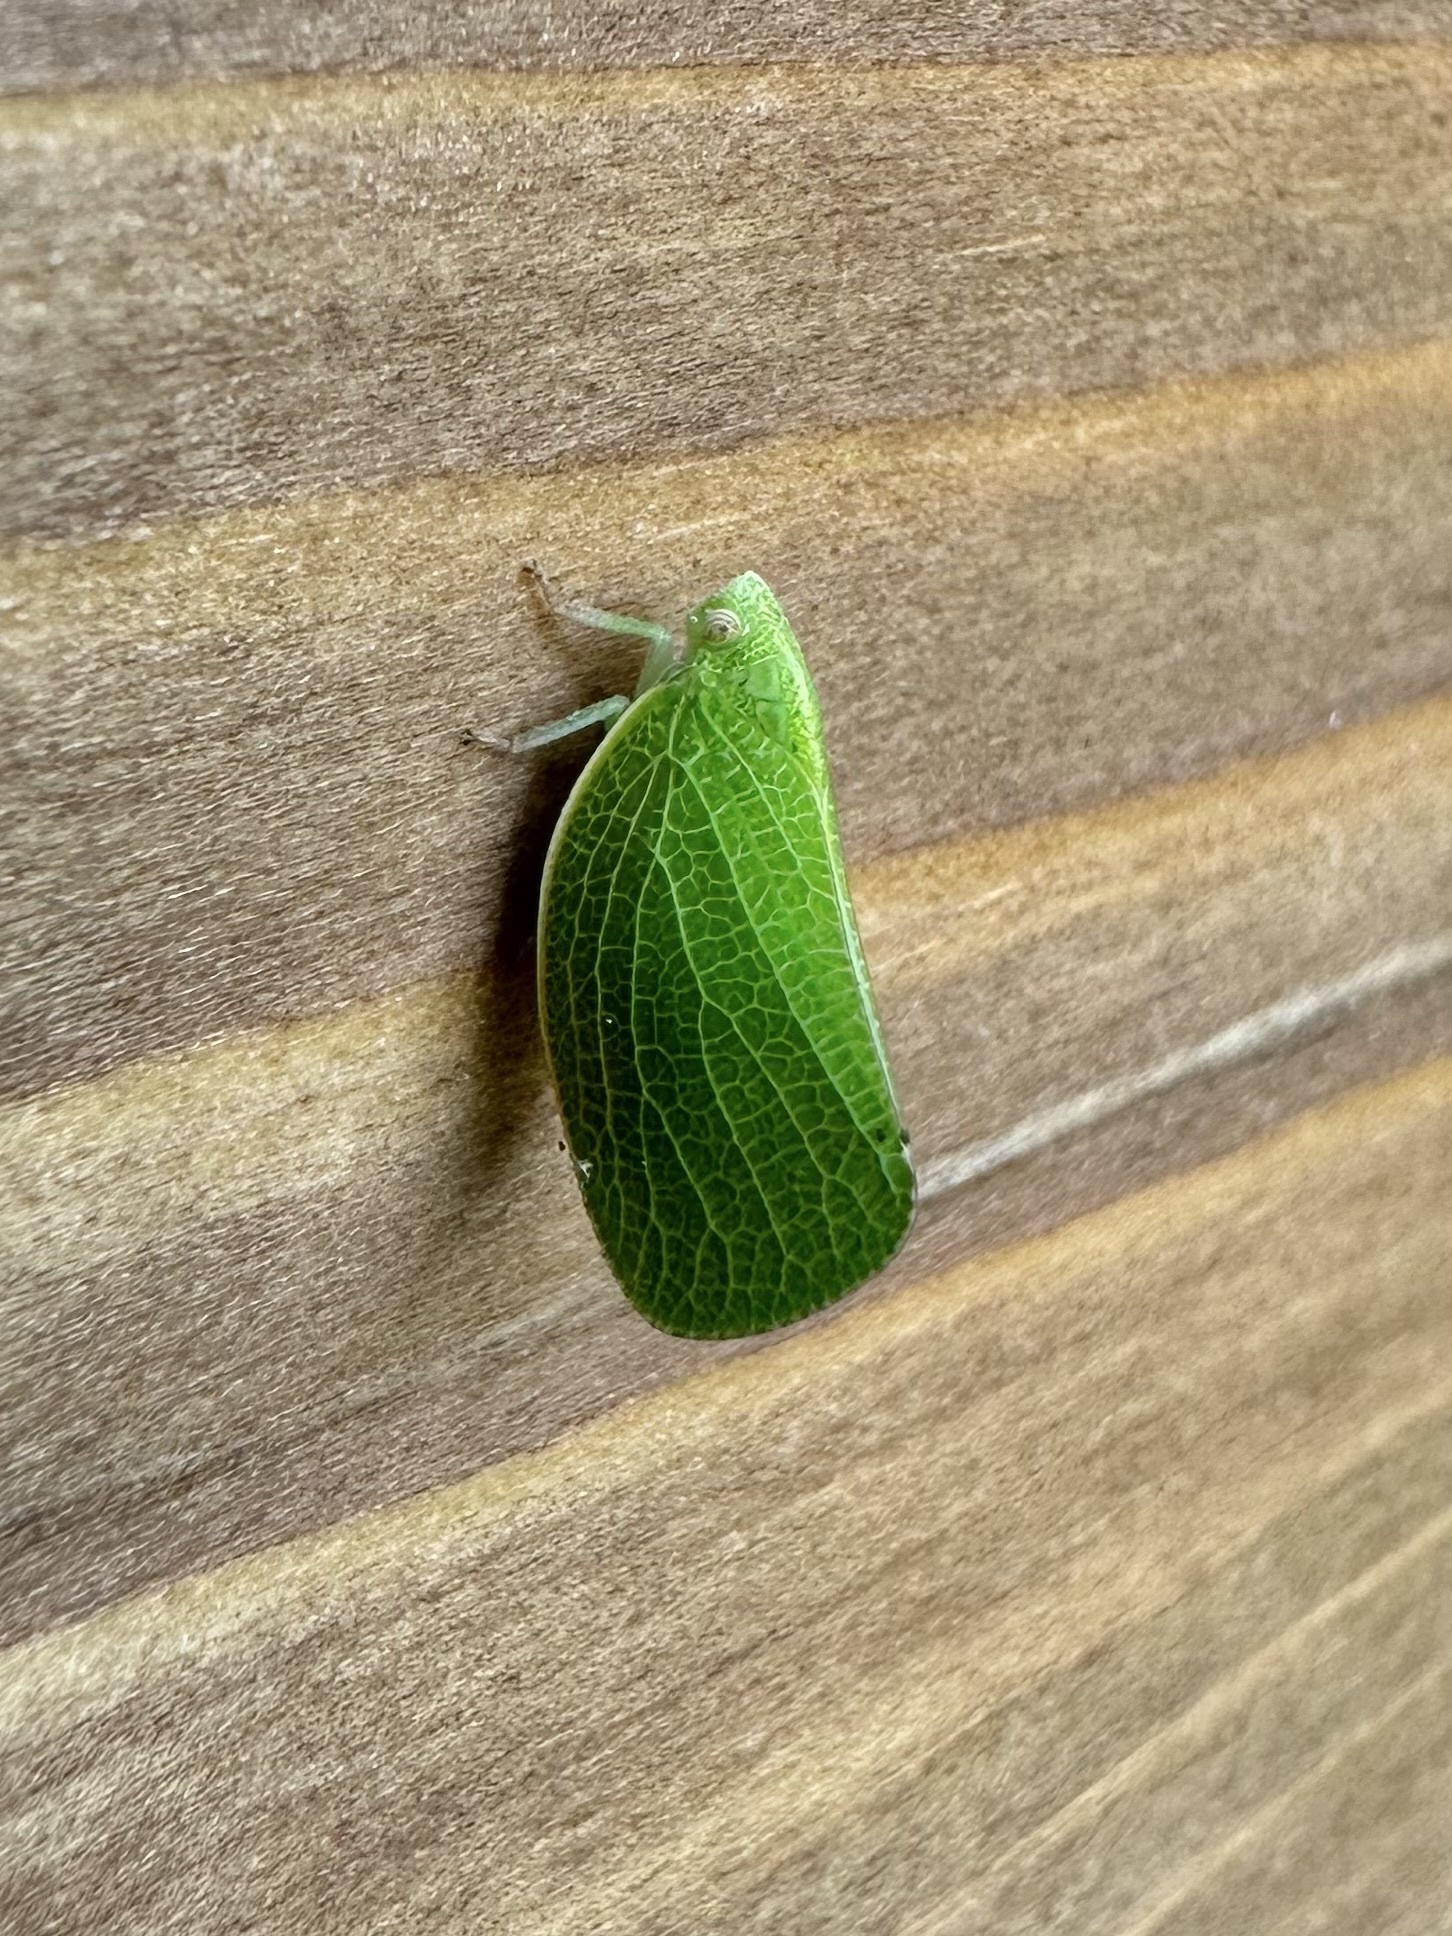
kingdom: Animalia
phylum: Arthropoda
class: Insecta
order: Hemiptera
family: Acanaloniidae
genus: Acanalonia
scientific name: Acanalonia conica
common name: Green cone-headed planthopper
